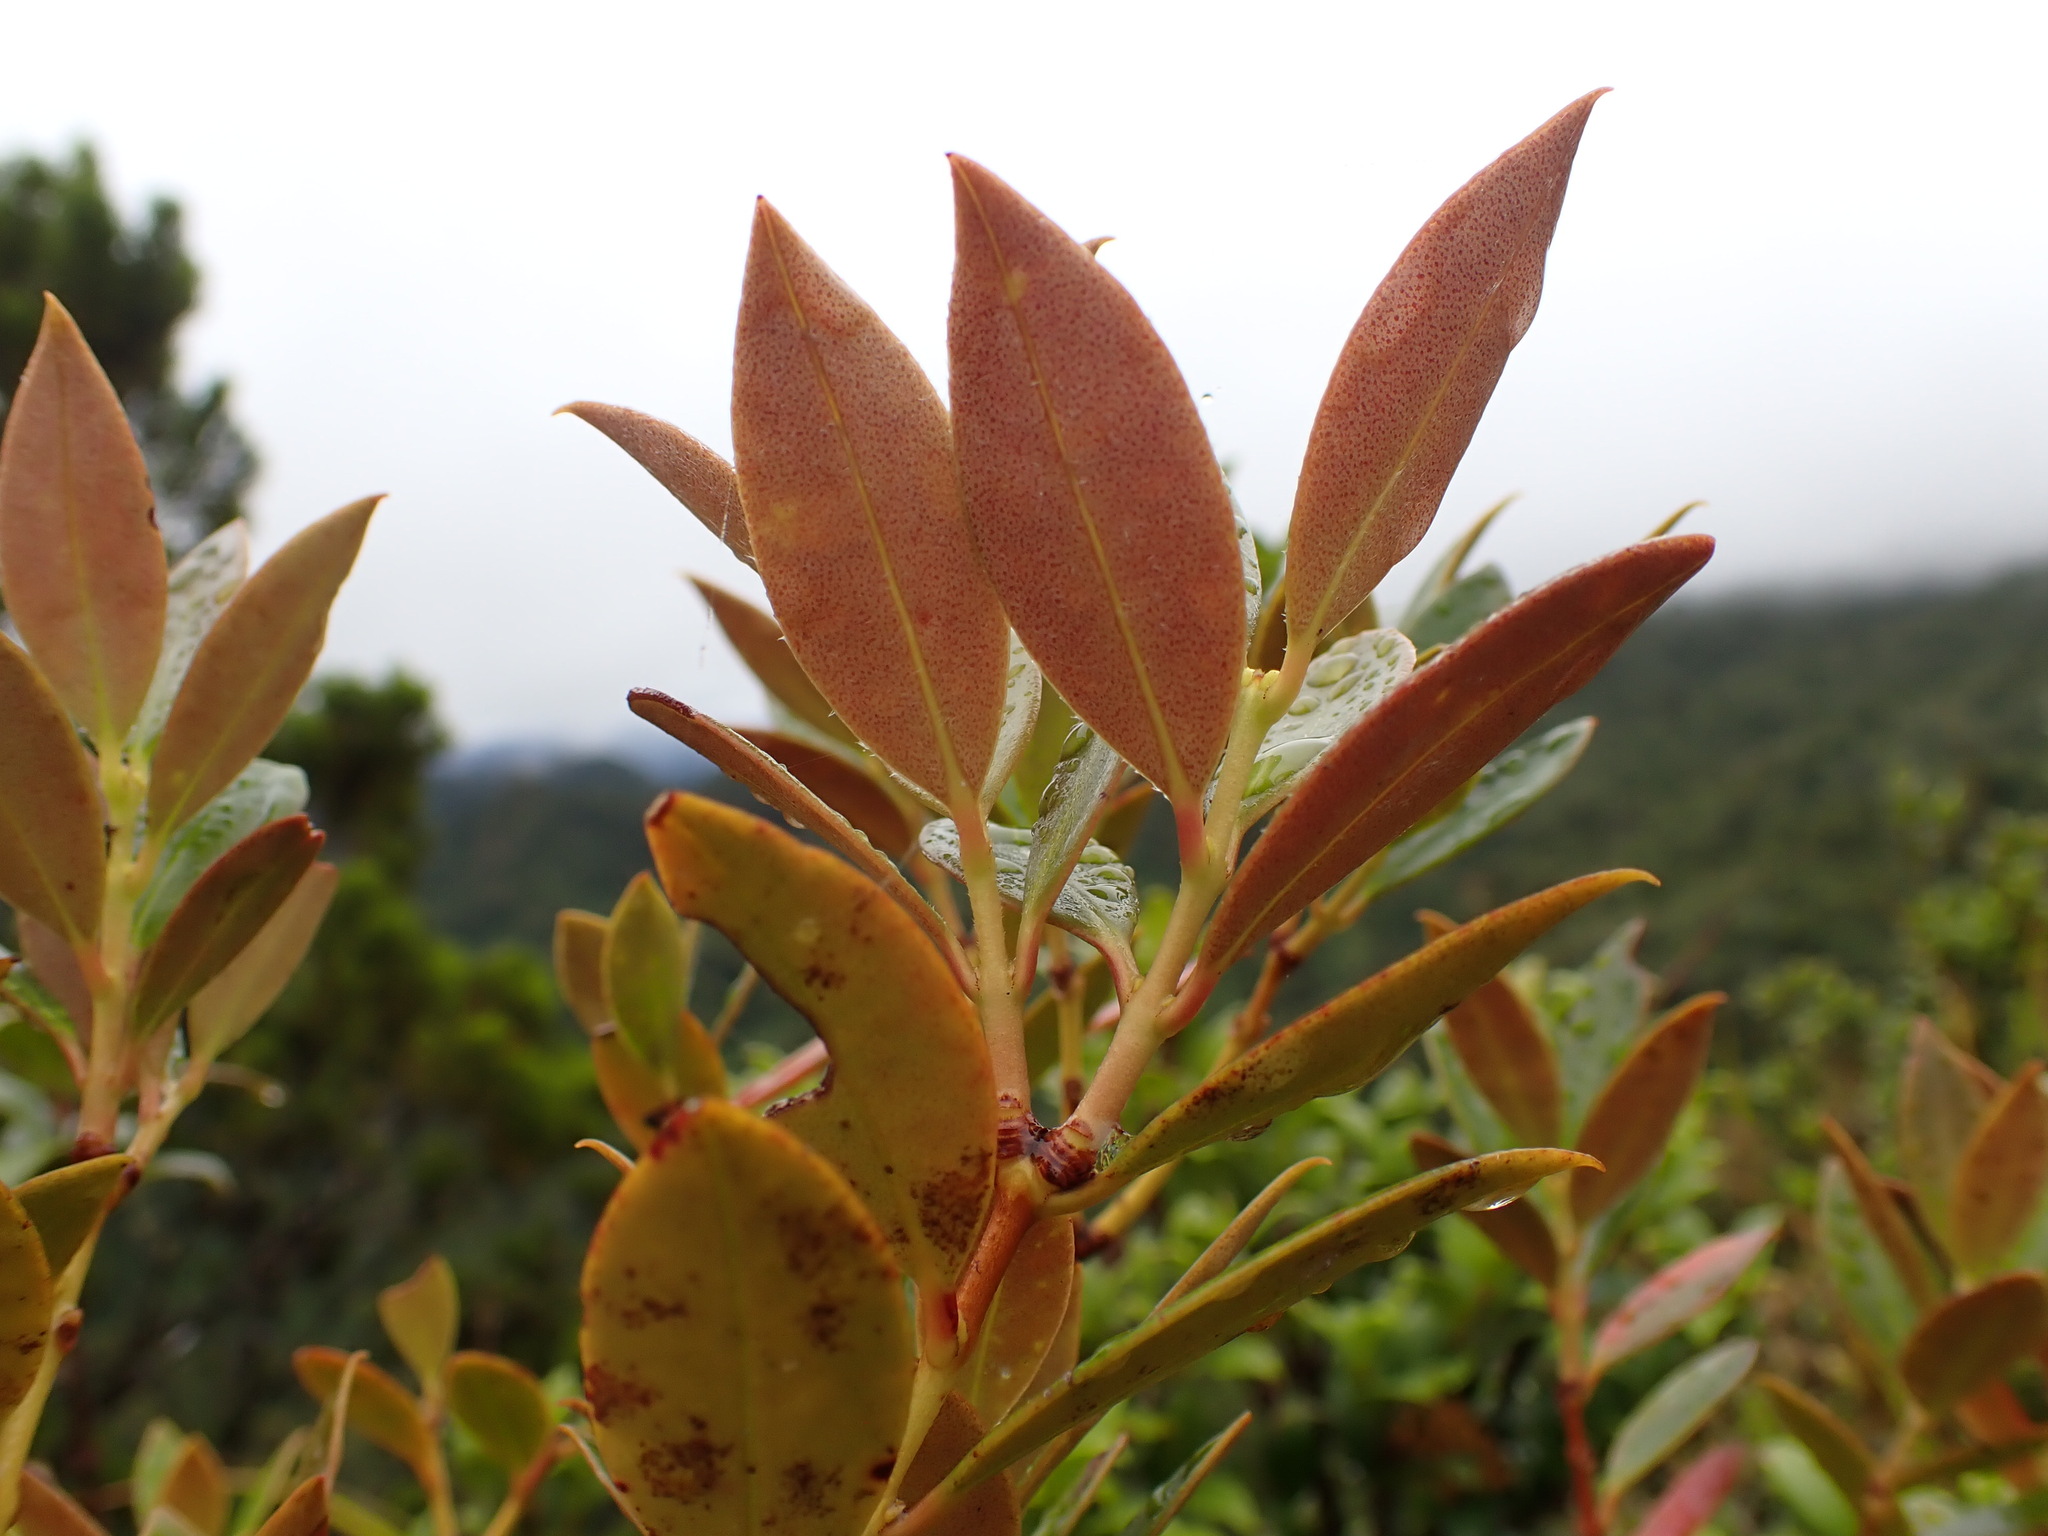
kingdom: Plantae
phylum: Tracheophyta
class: Magnoliopsida
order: Myrtales
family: Myrtaceae
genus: Metrosideros
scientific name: Metrosideros umbellata
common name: Southern rata
